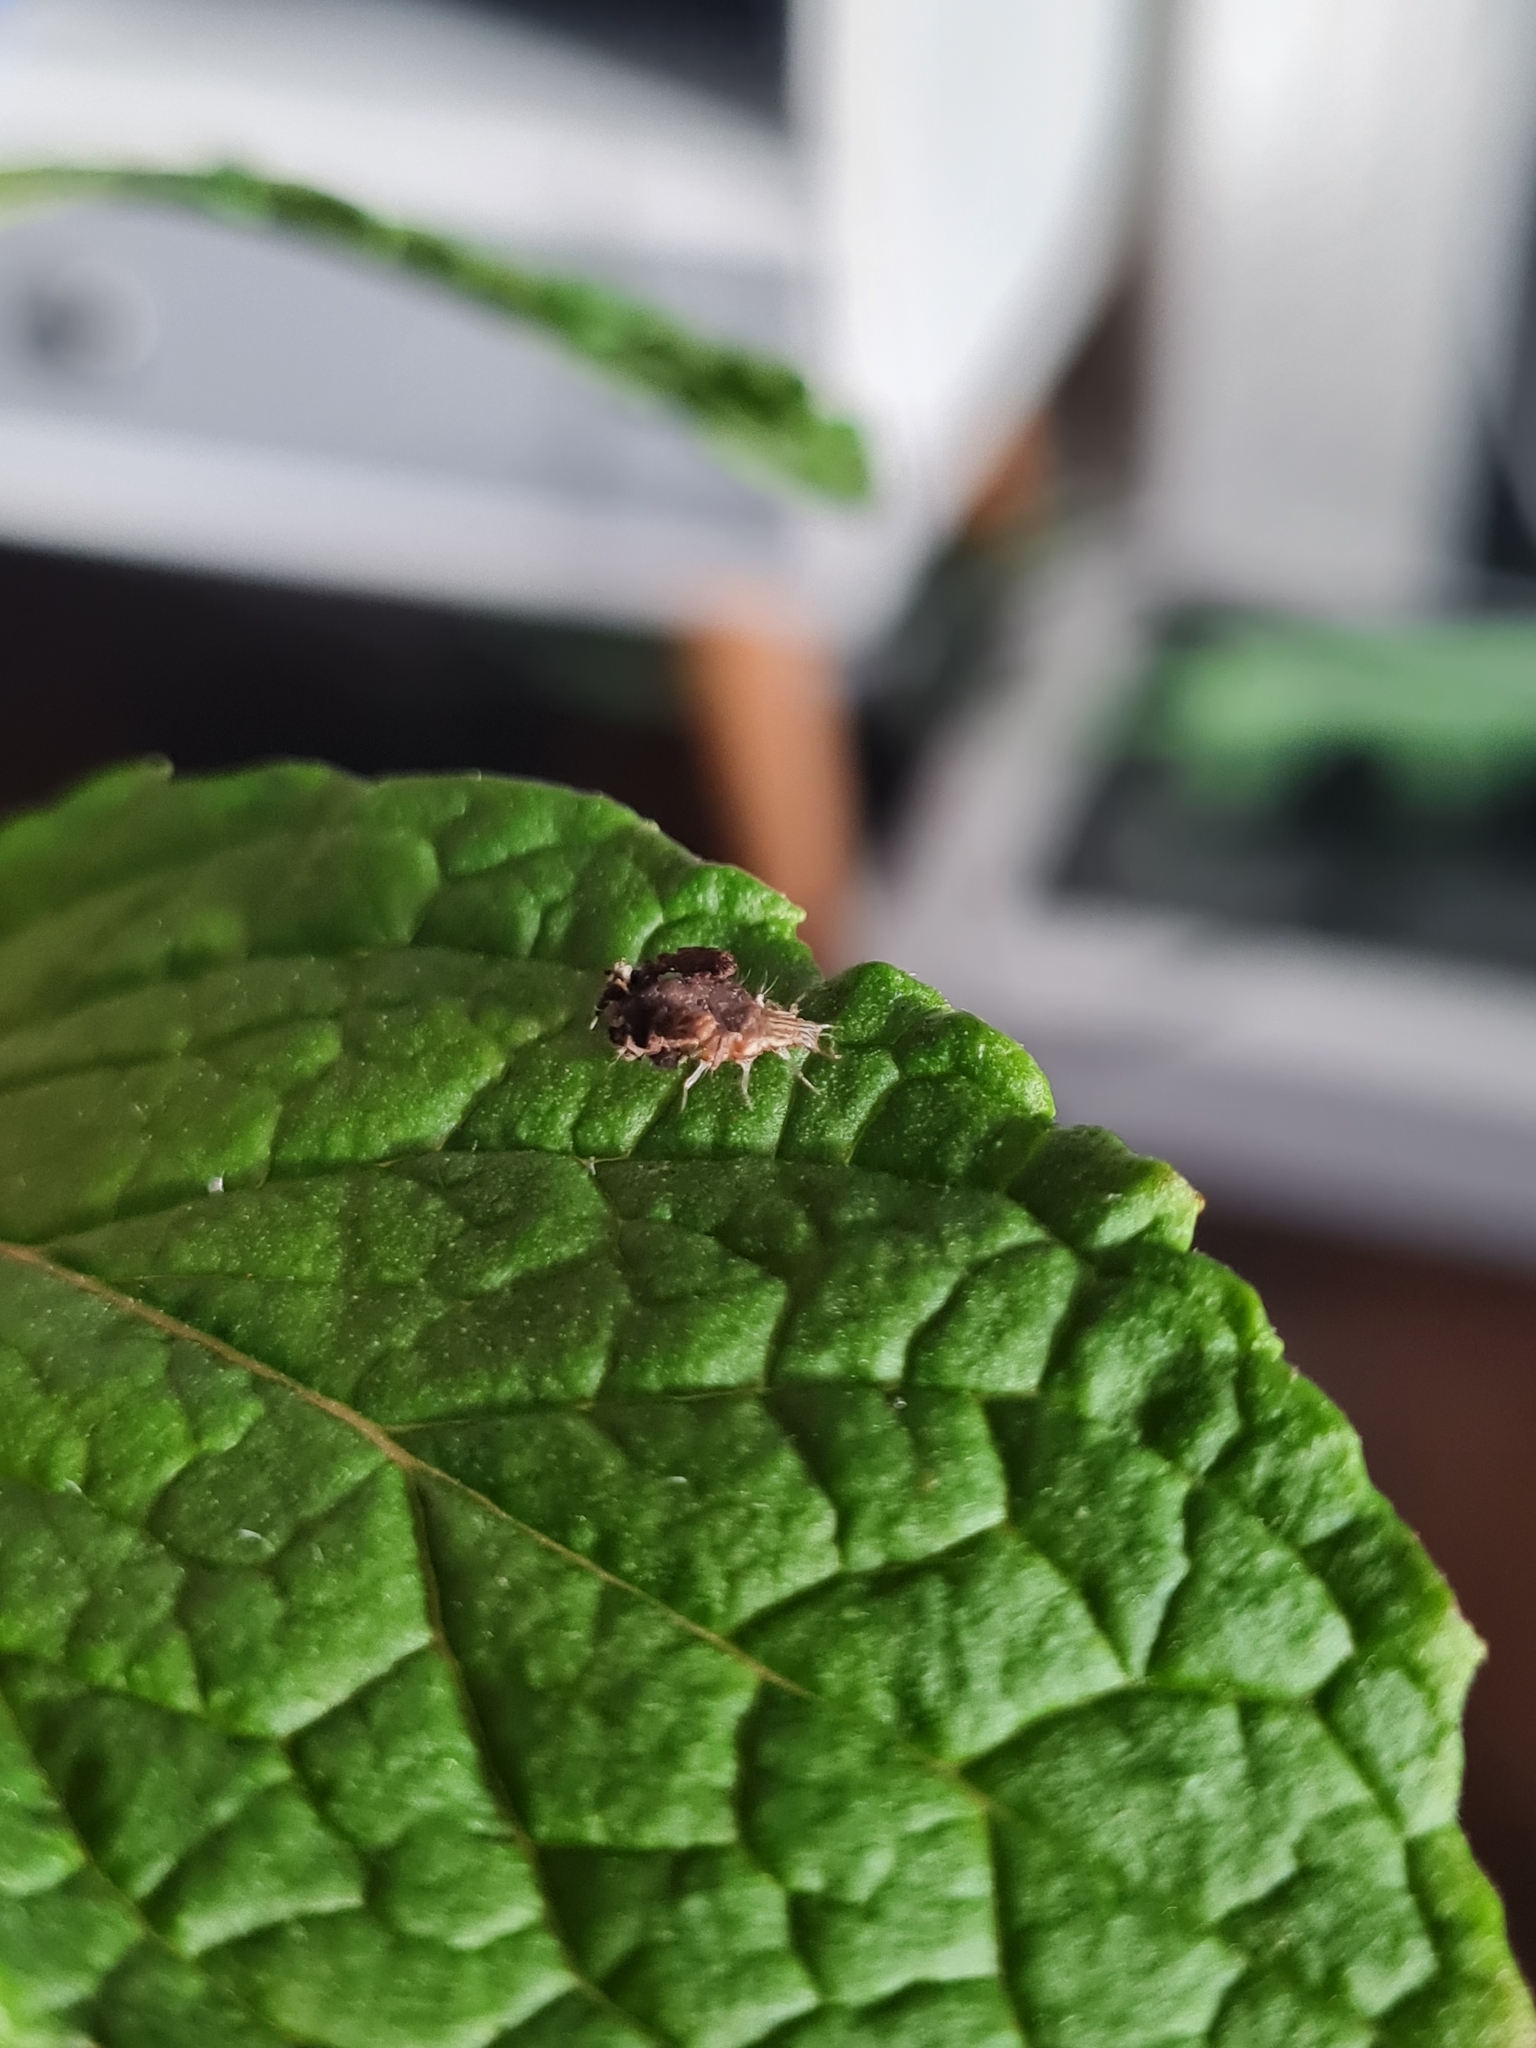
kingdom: Animalia
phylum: Arthropoda
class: Insecta
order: Neuroptera
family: Chrysopidae
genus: Mallada
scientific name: Mallada basalis
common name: Green lacewing
